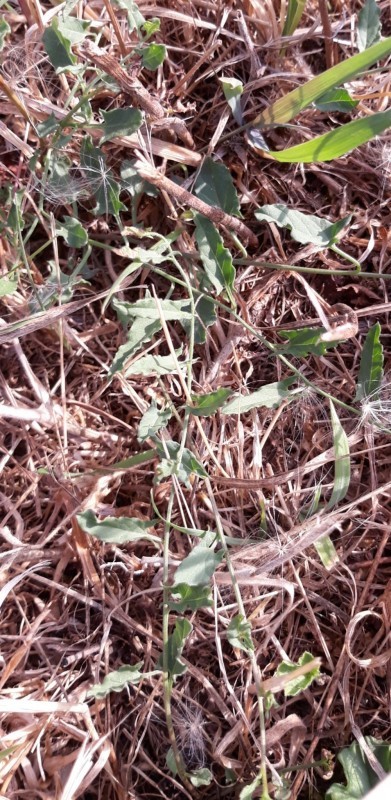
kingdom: Plantae
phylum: Tracheophyta
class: Magnoliopsida
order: Solanales
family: Convolvulaceae
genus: Convolvulus
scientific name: Convolvulus arvensis
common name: Field bindweed
